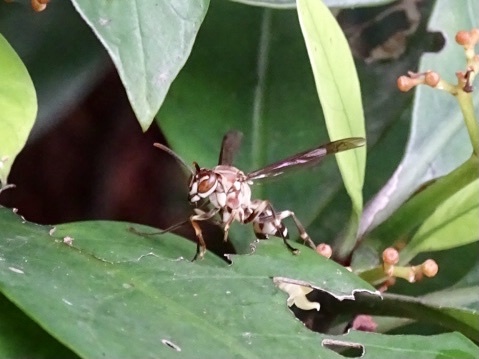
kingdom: Animalia
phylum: Arthropoda
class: Insecta
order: Hymenoptera
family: Vespidae
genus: Parapolybia
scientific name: Parapolybia nodosa
